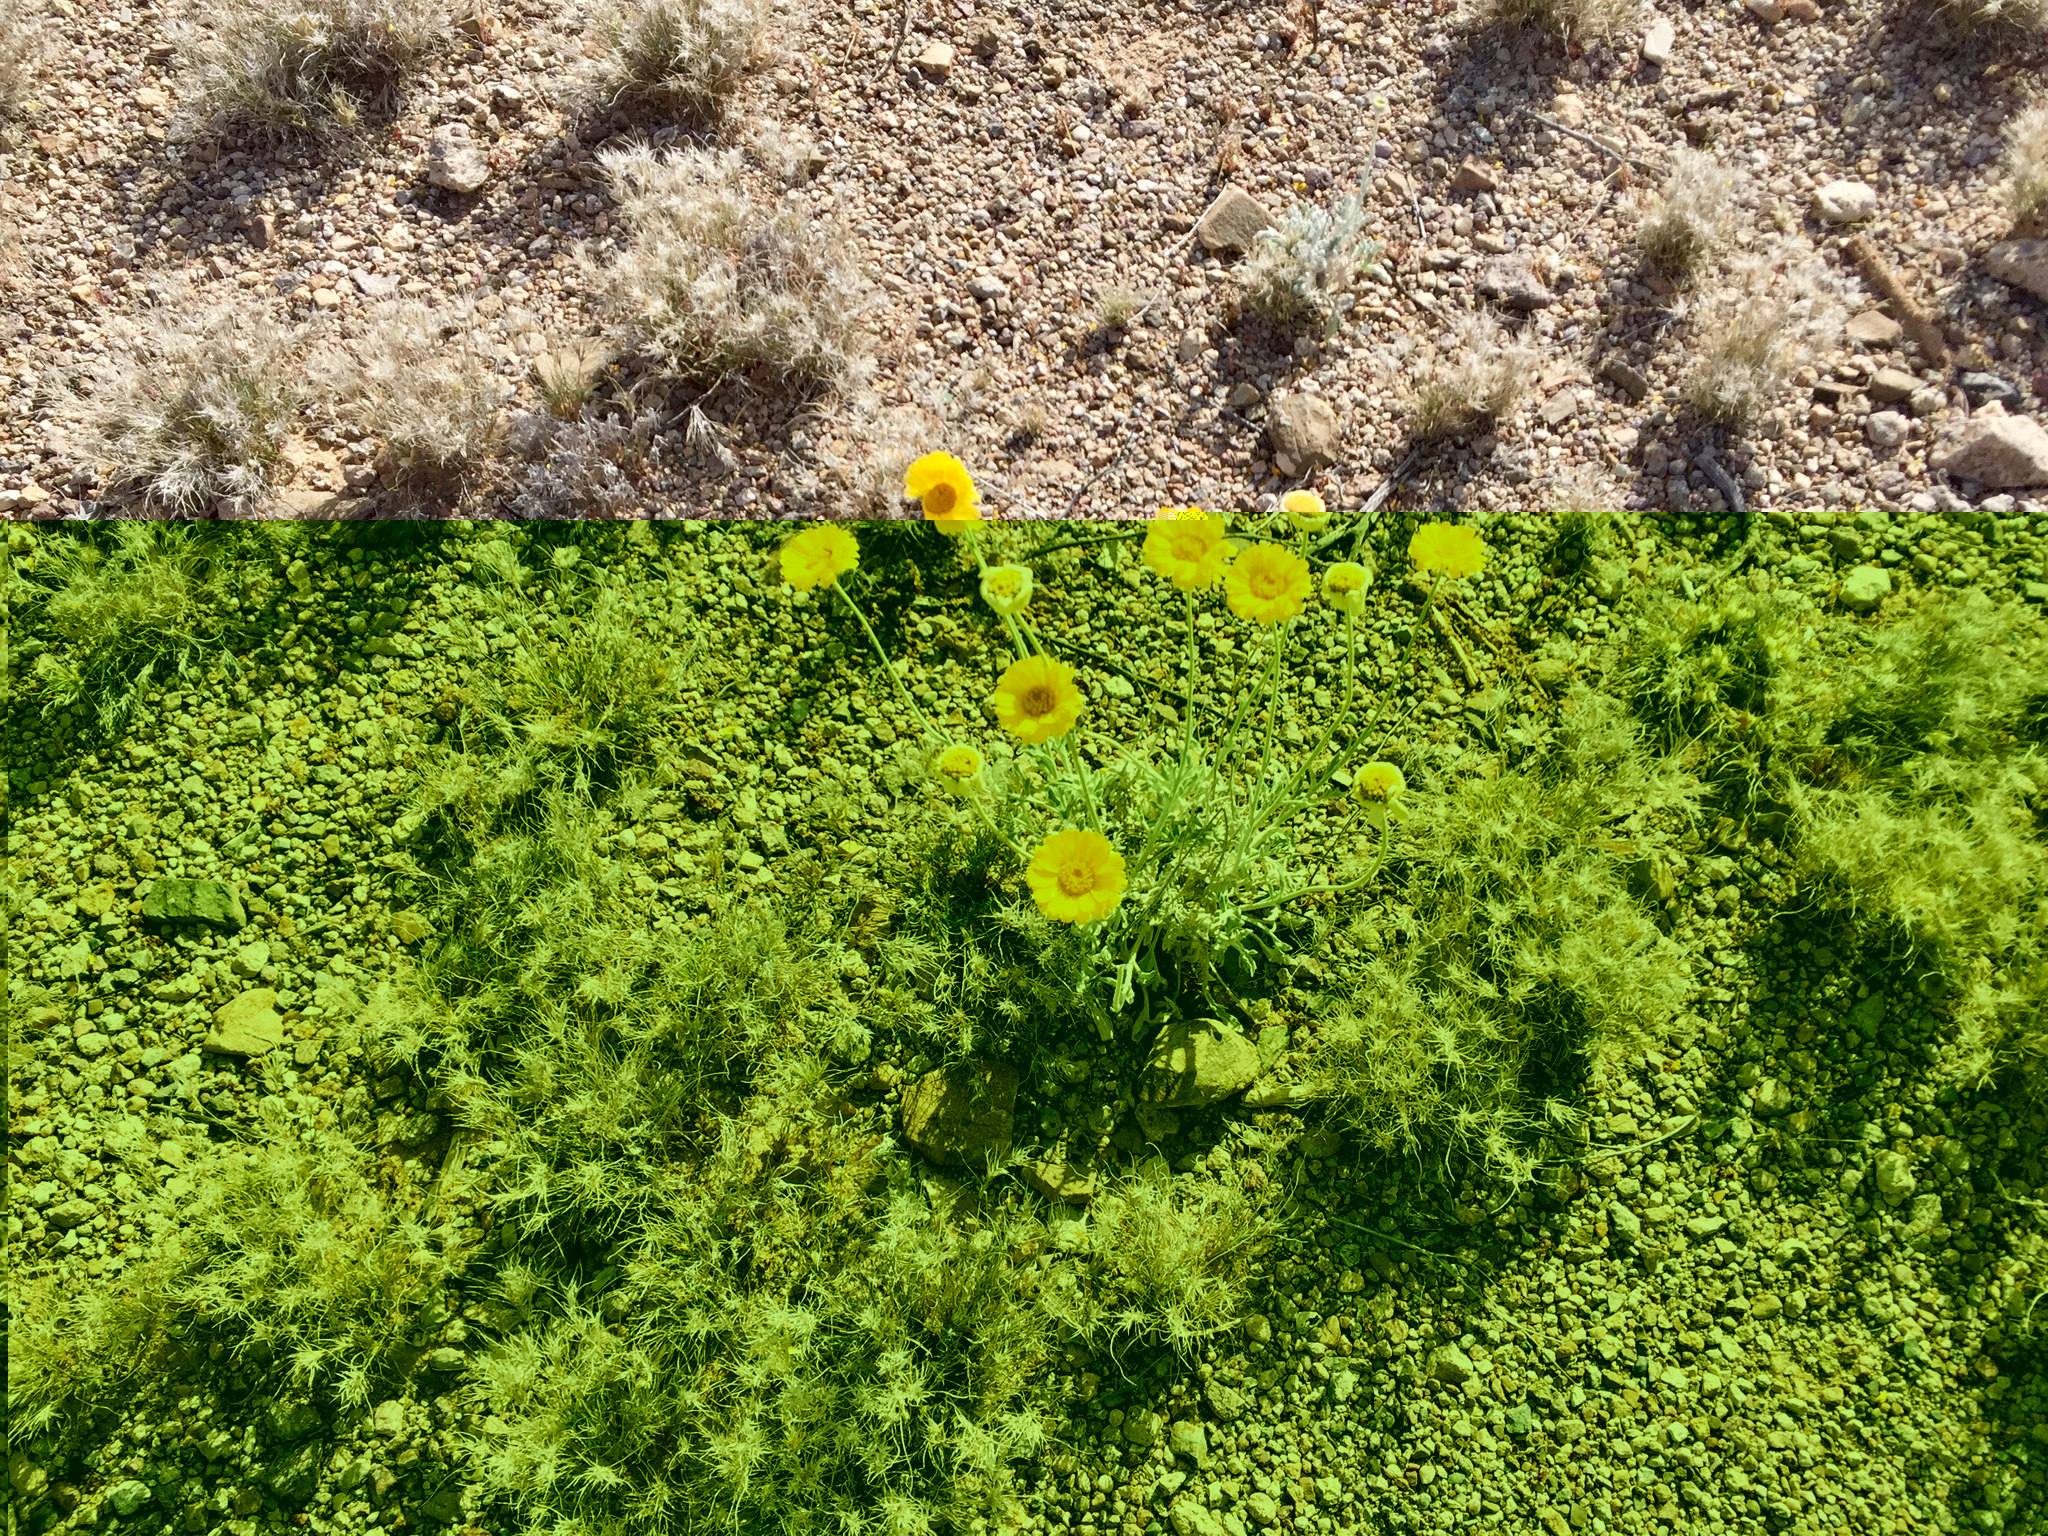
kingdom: Plantae
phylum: Tracheophyta
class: Magnoliopsida
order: Asterales
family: Asteraceae
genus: Baileya
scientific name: Baileya multiradiata
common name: Desert-marigold
